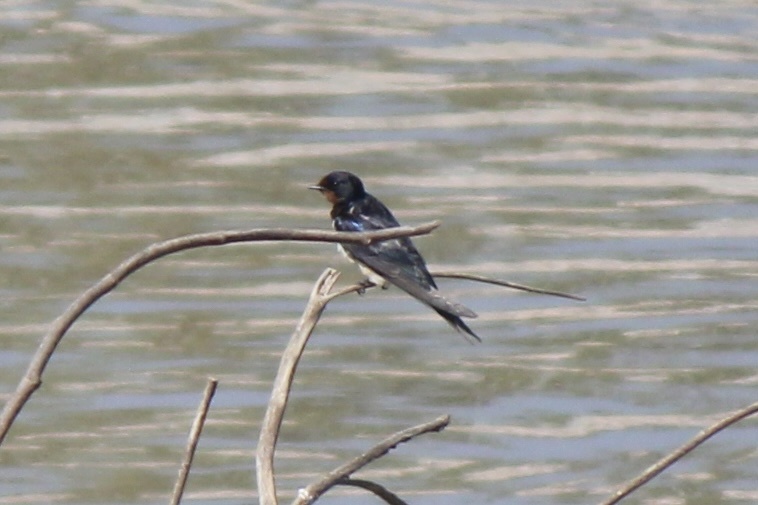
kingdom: Animalia
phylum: Chordata
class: Aves
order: Passeriformes
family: Hirundinidae
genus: Hirundo
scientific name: Hirundo rustica
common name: Barn swallow
